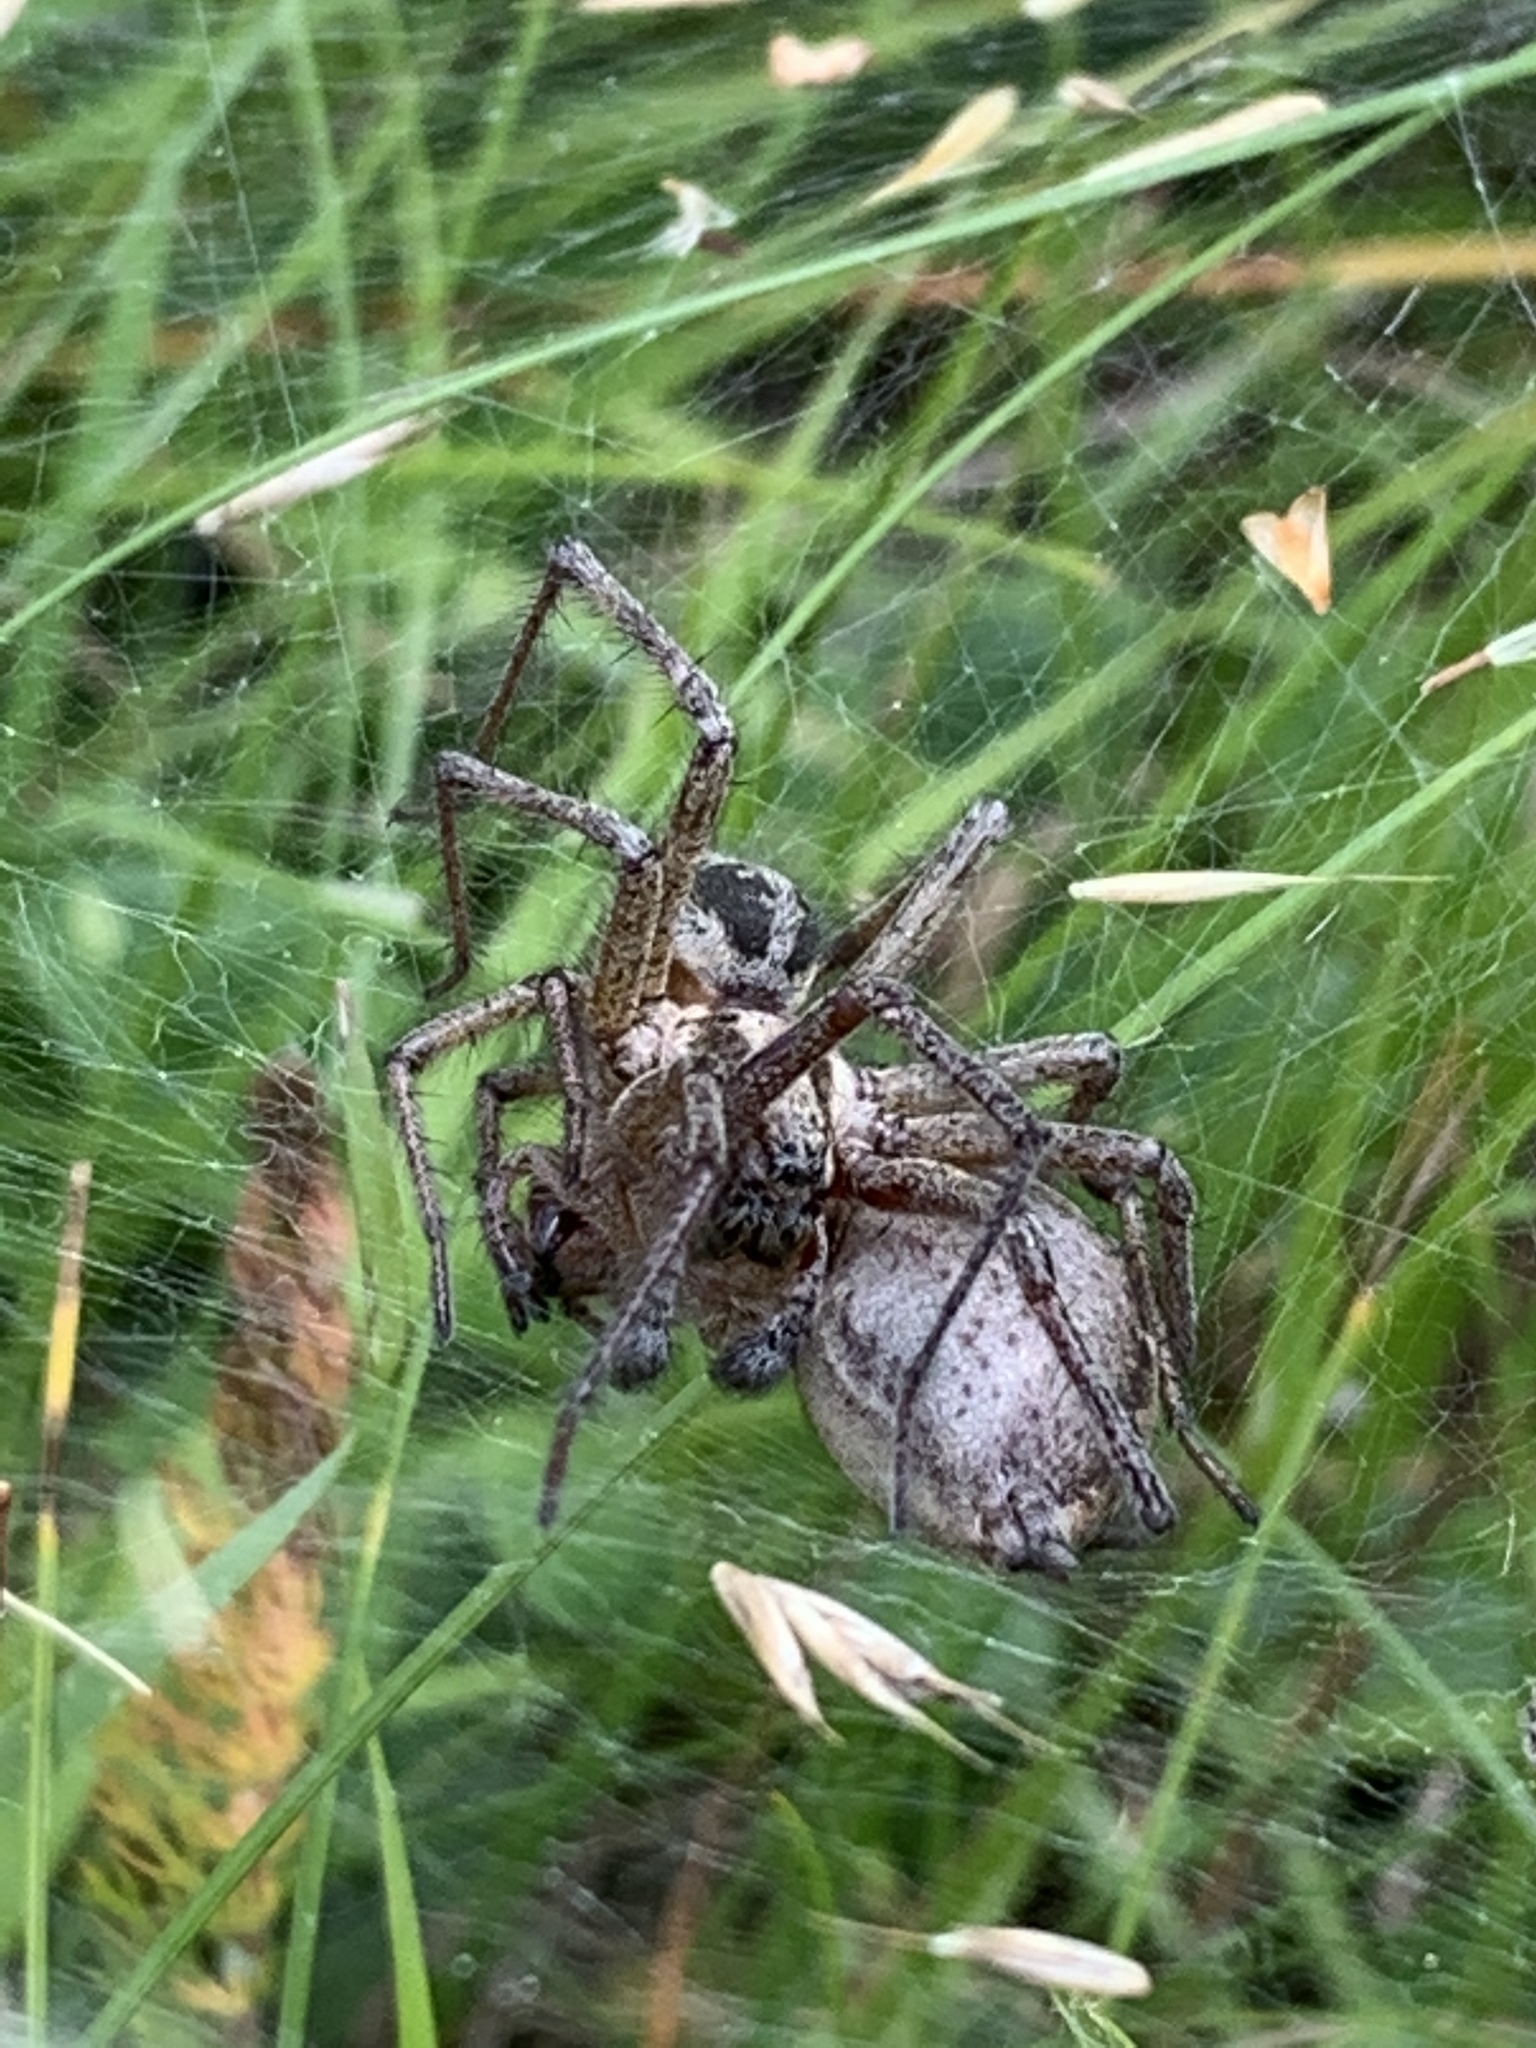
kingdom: Animalia
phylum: Arthropoda
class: Arachnida
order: Araneae
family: Agelenidae
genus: Agelena
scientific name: Agelena labyrinthica
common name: Labyrinth spider
